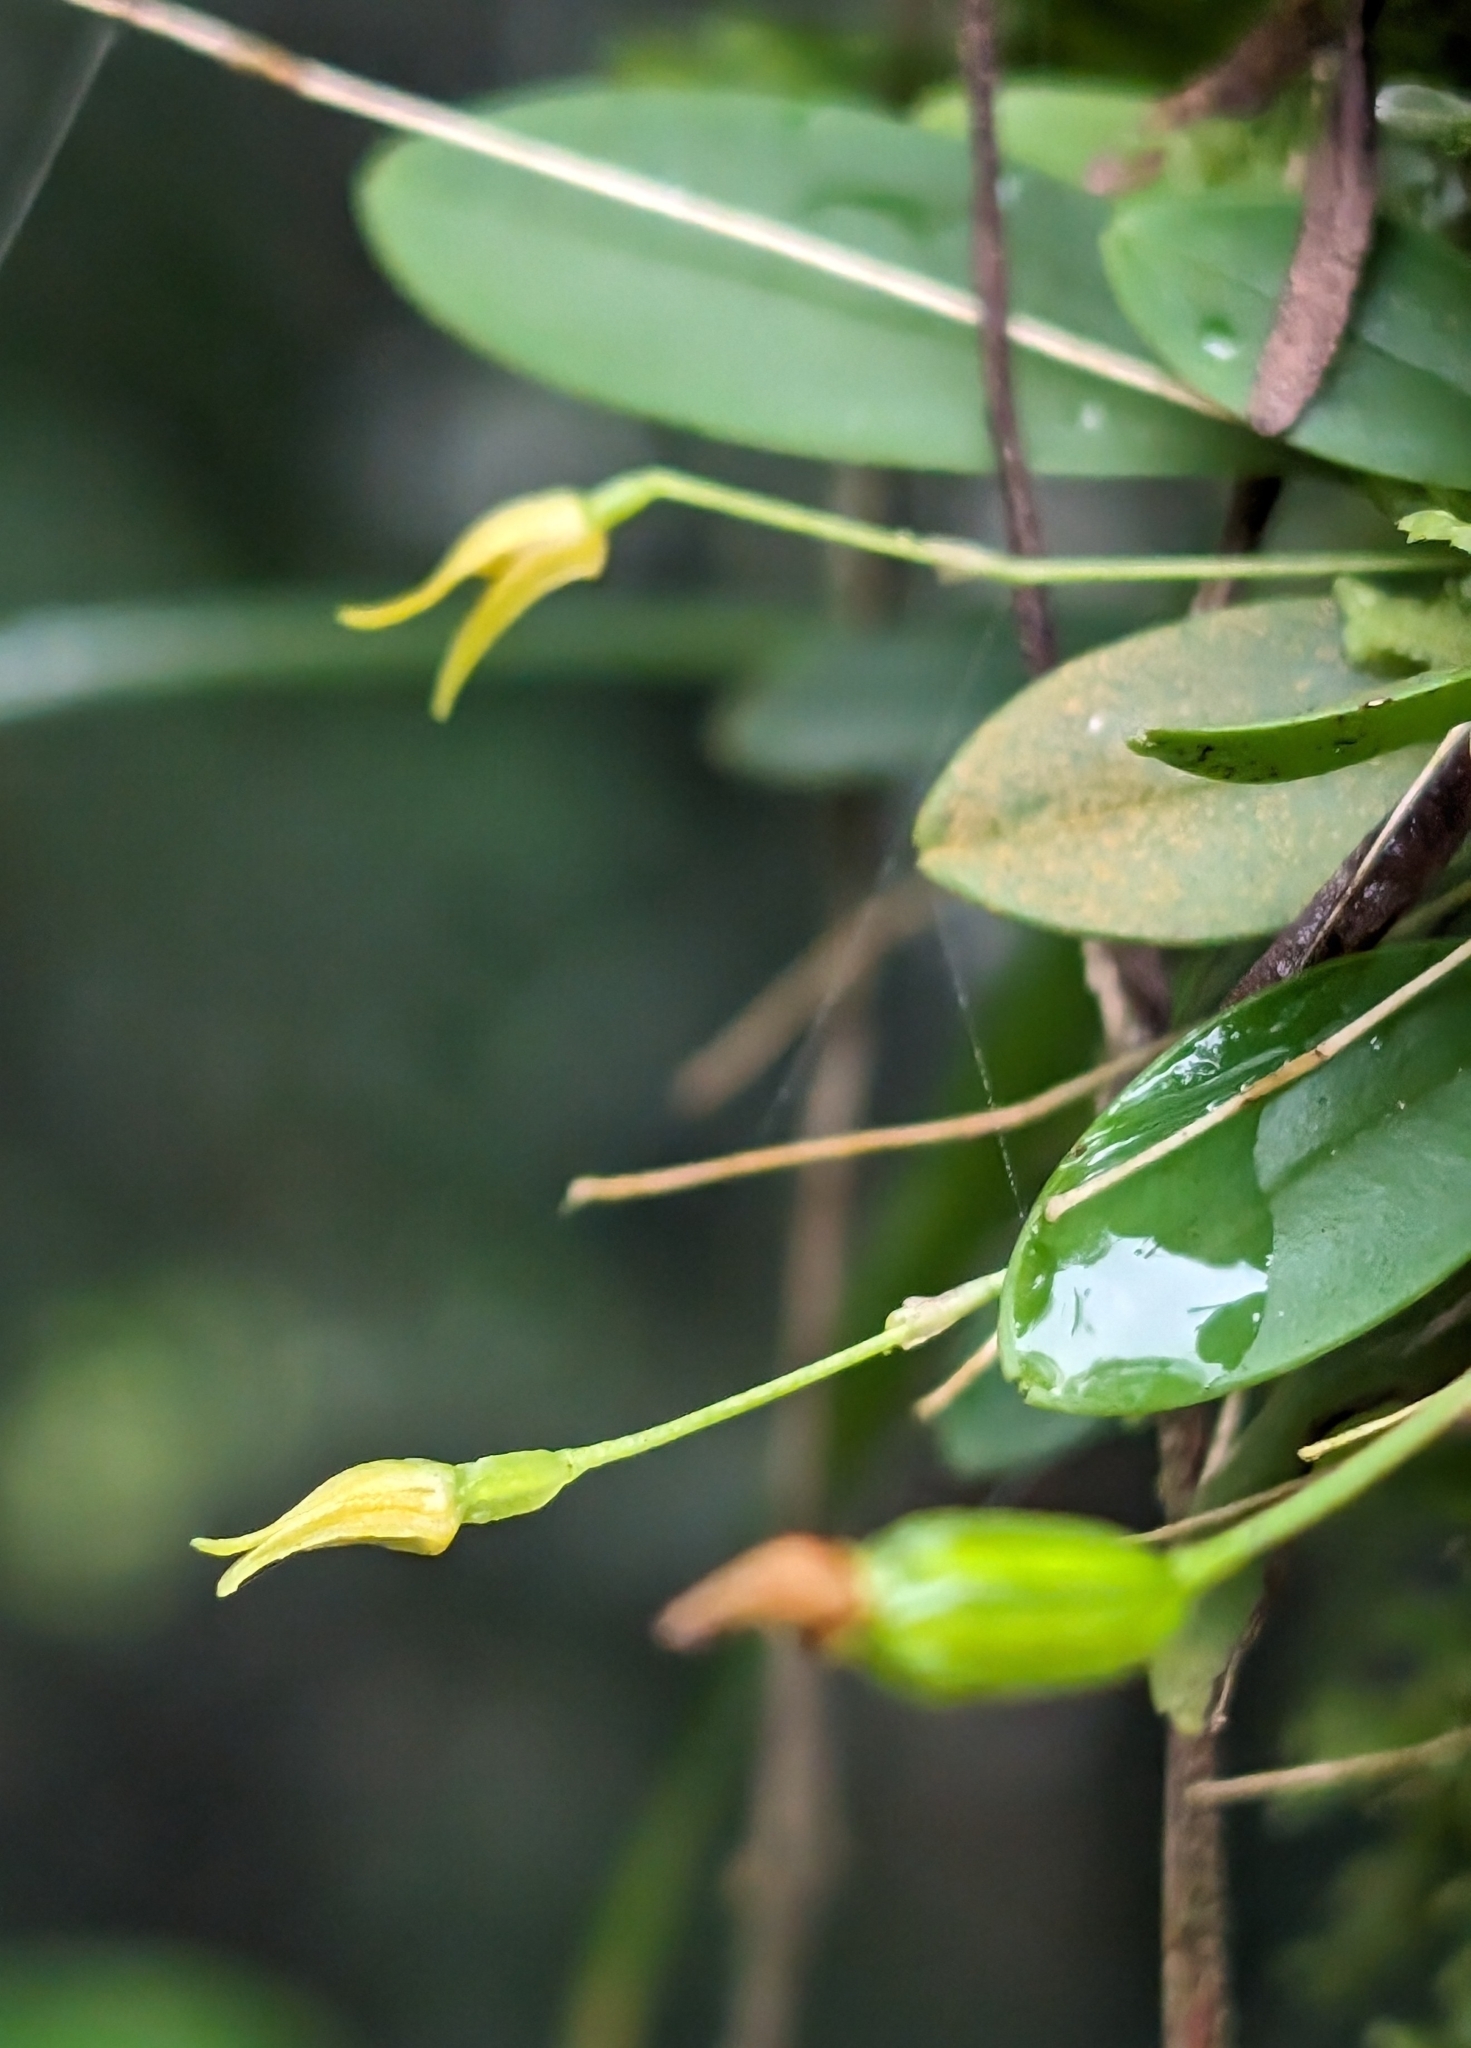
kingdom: Plantae
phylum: Tracheophyta
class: Liliopsida
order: Asparagales
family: Orchidaceae
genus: Specklinia
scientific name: Specklinia corniculata
